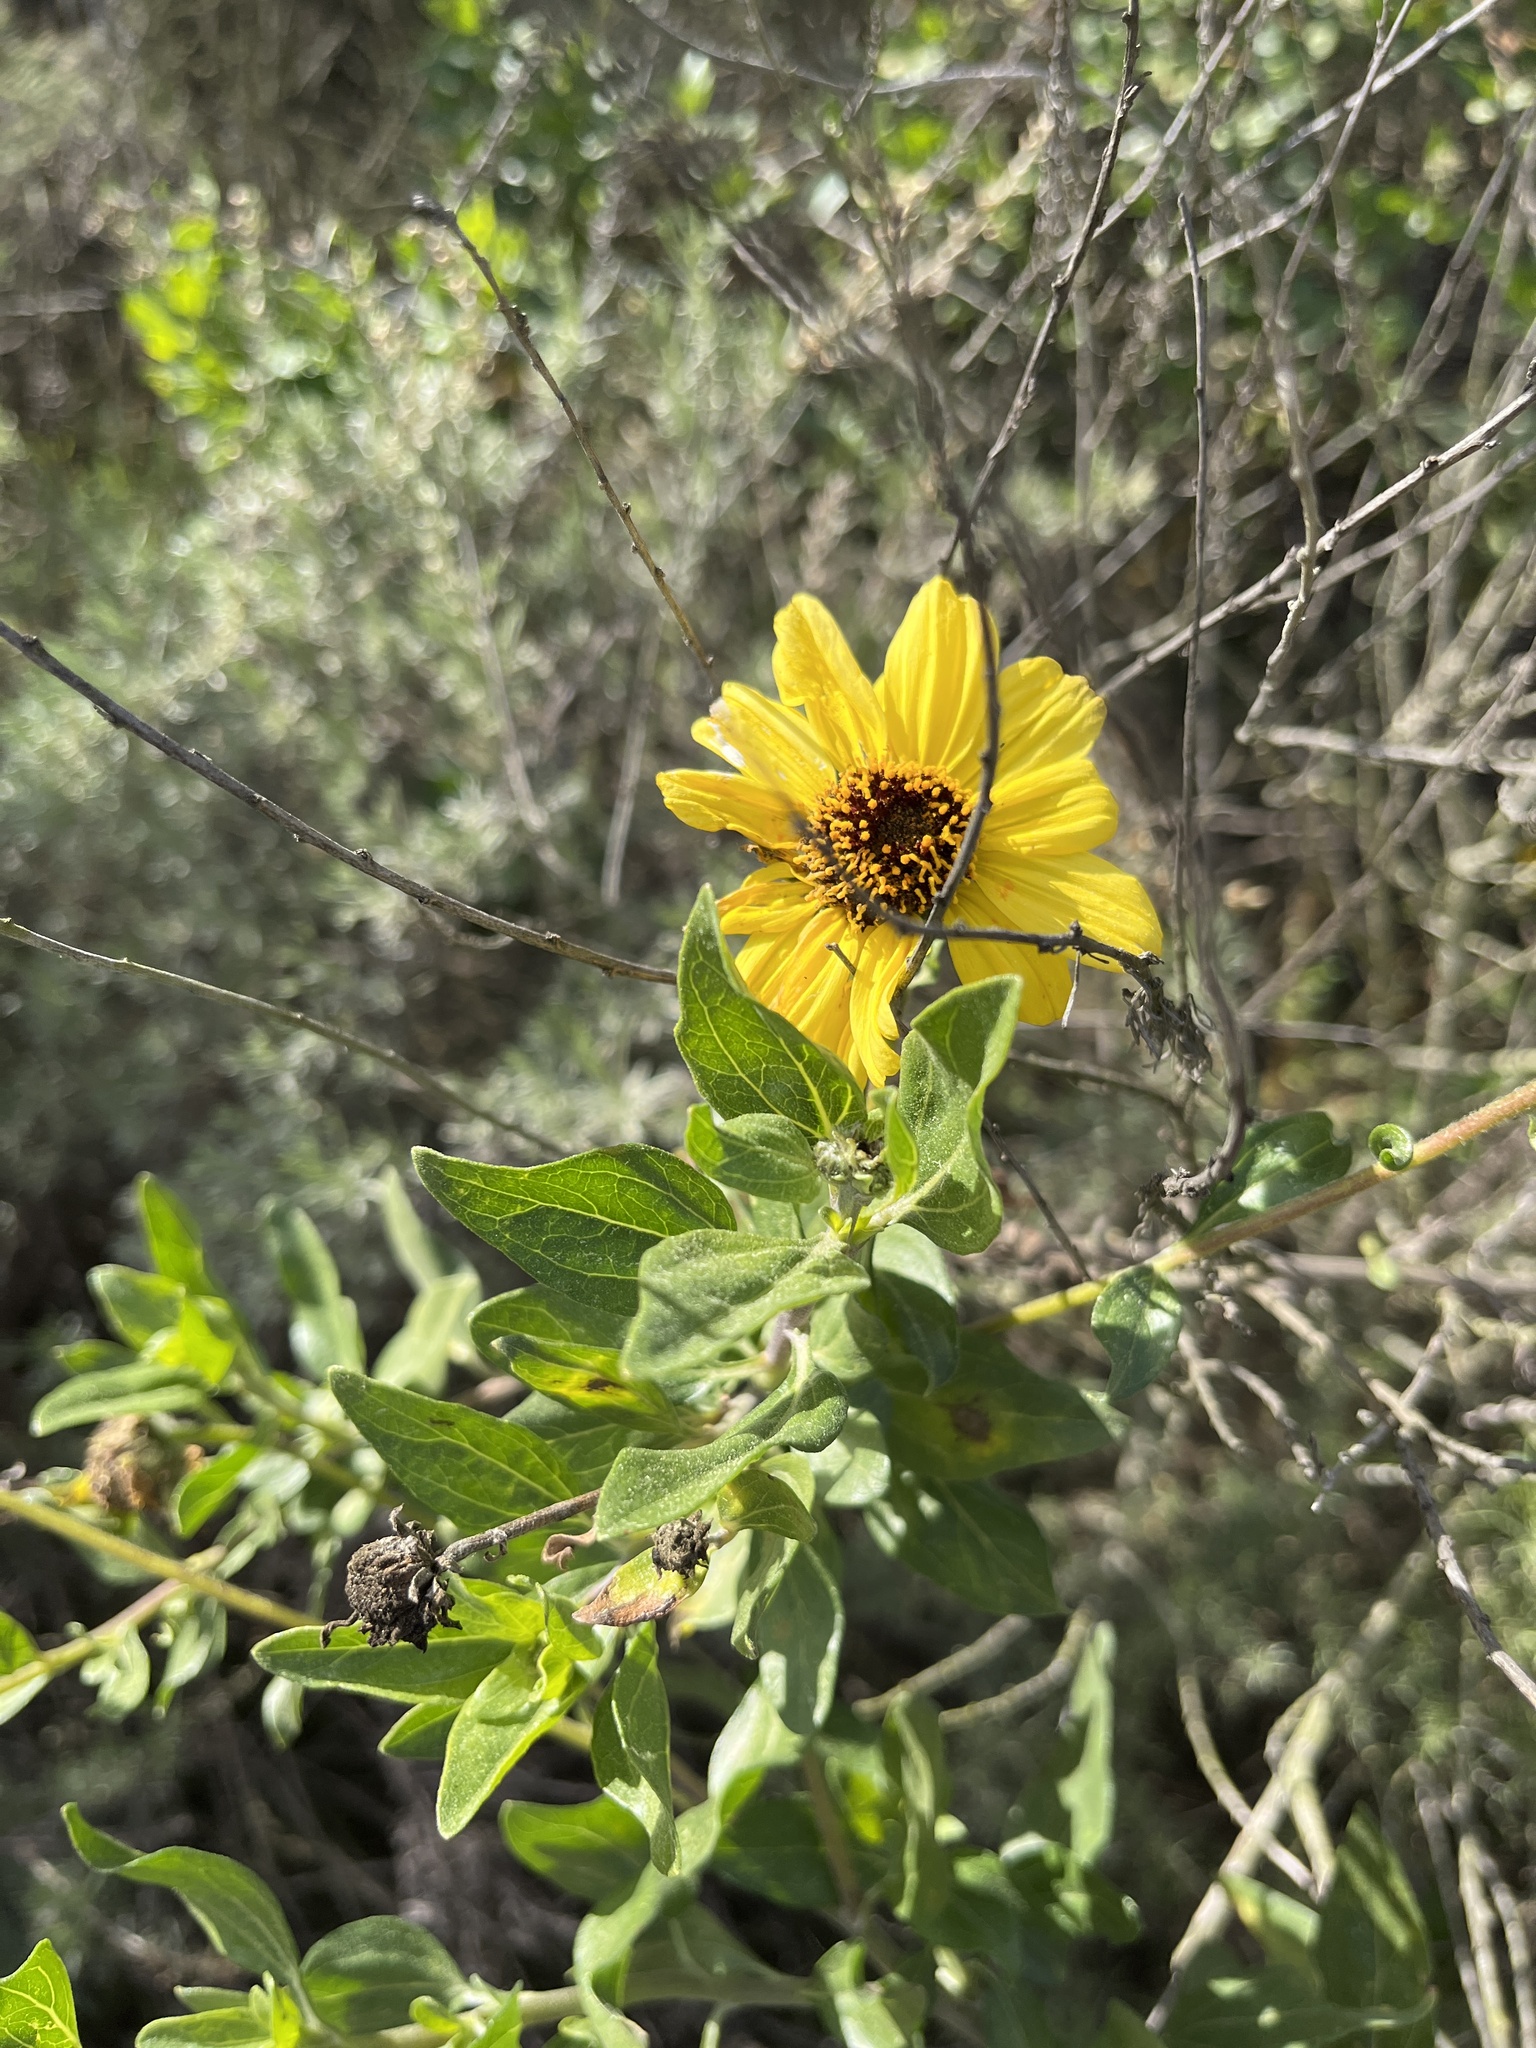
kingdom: Plantae
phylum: Tracheophyta
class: Magnoliopsida
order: Asterales
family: Asteraceae
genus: Encelia
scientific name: Encelia californica
